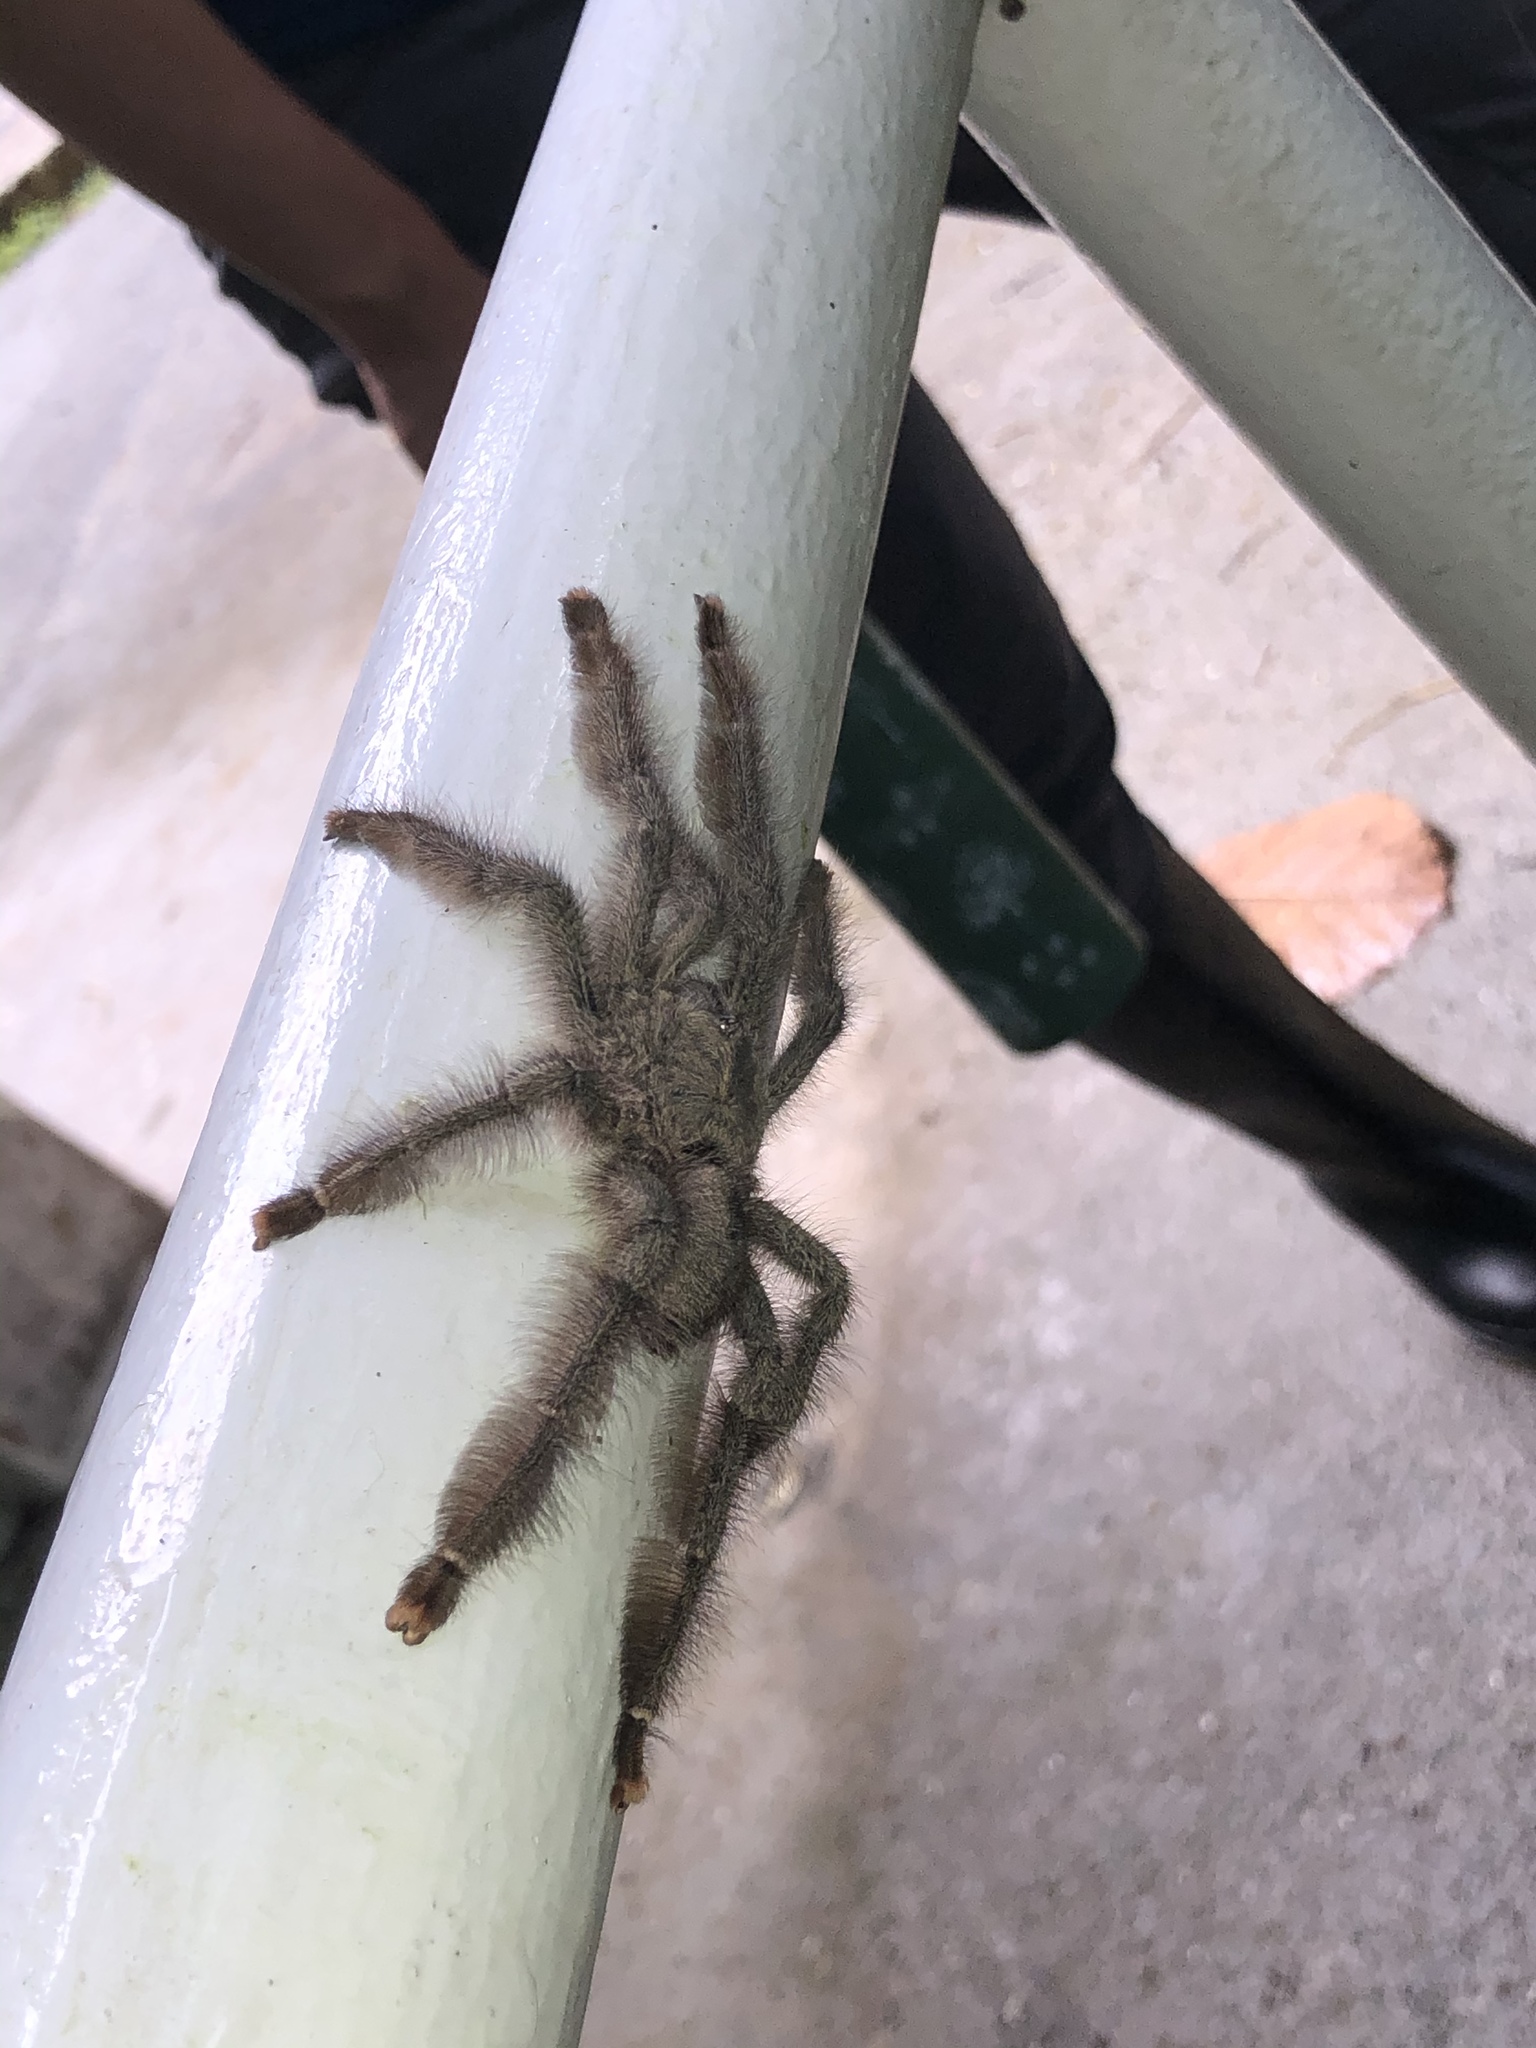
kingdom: Animalia
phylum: Arthropoda
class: Arachnida
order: Araneae
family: Theraphosidae
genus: Psalmopoeus
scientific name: Psalmopoeus pulcher
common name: Tarantula spiders
